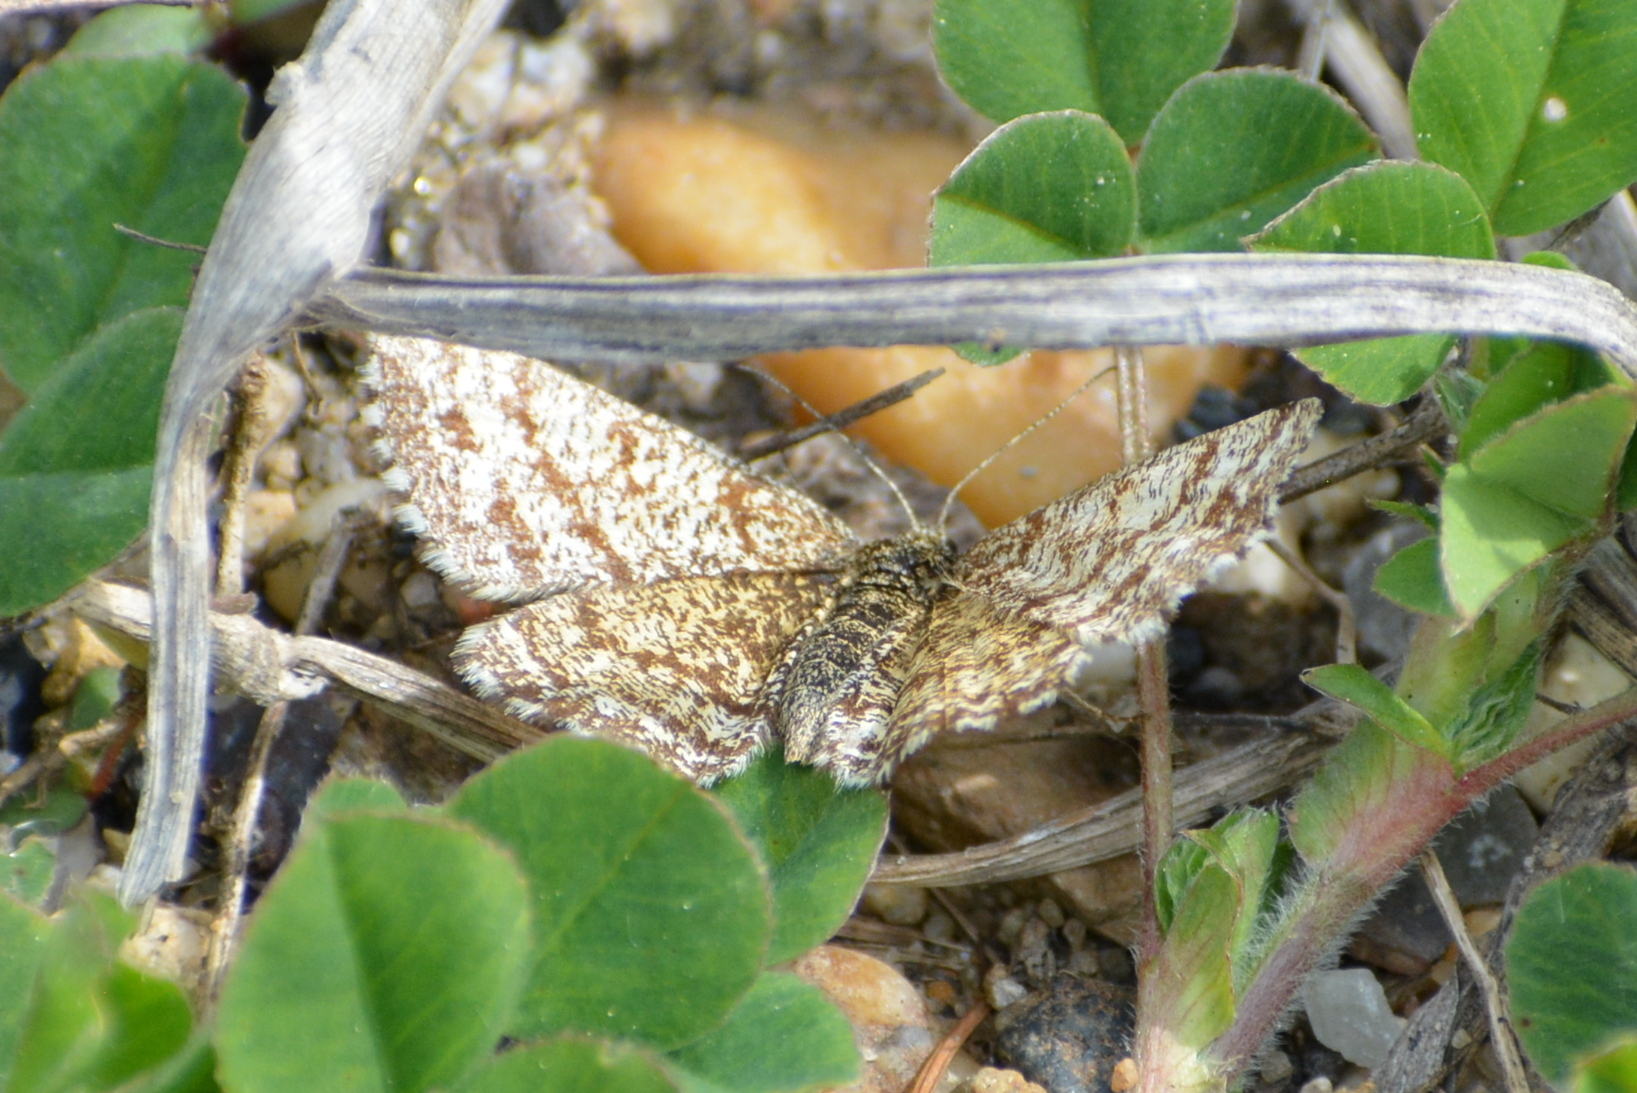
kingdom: Animalia
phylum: Arthropoda
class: Insecta
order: Lepidoptera
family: Geometridae
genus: Ematurga
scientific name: Ematurga atomaria
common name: Common heath
